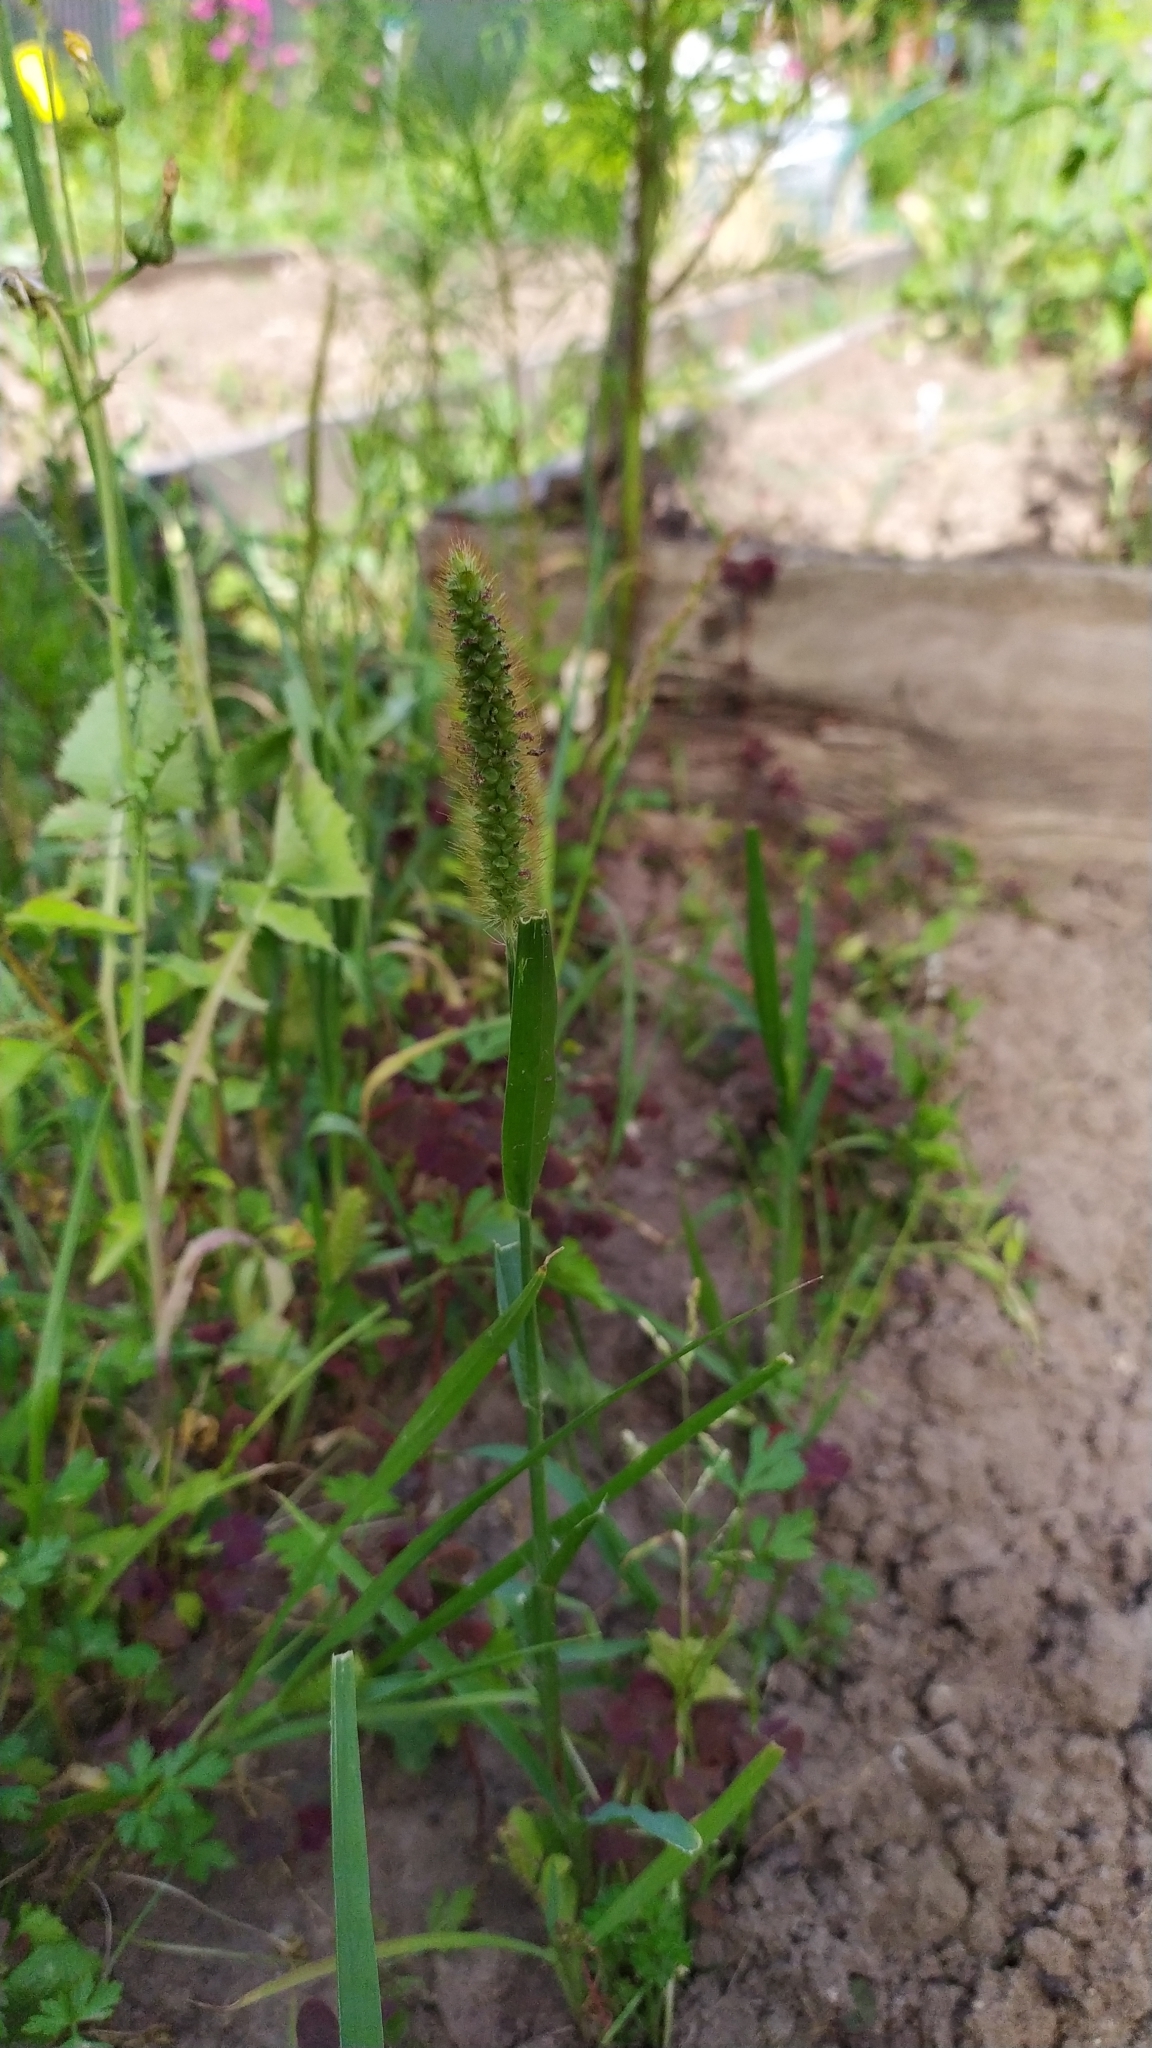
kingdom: Plantae
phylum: Tracheophyta
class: Liliopsida
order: Poales
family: Poaceae
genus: Setaria
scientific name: Setaria pumila
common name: Yellow bristle-grass
